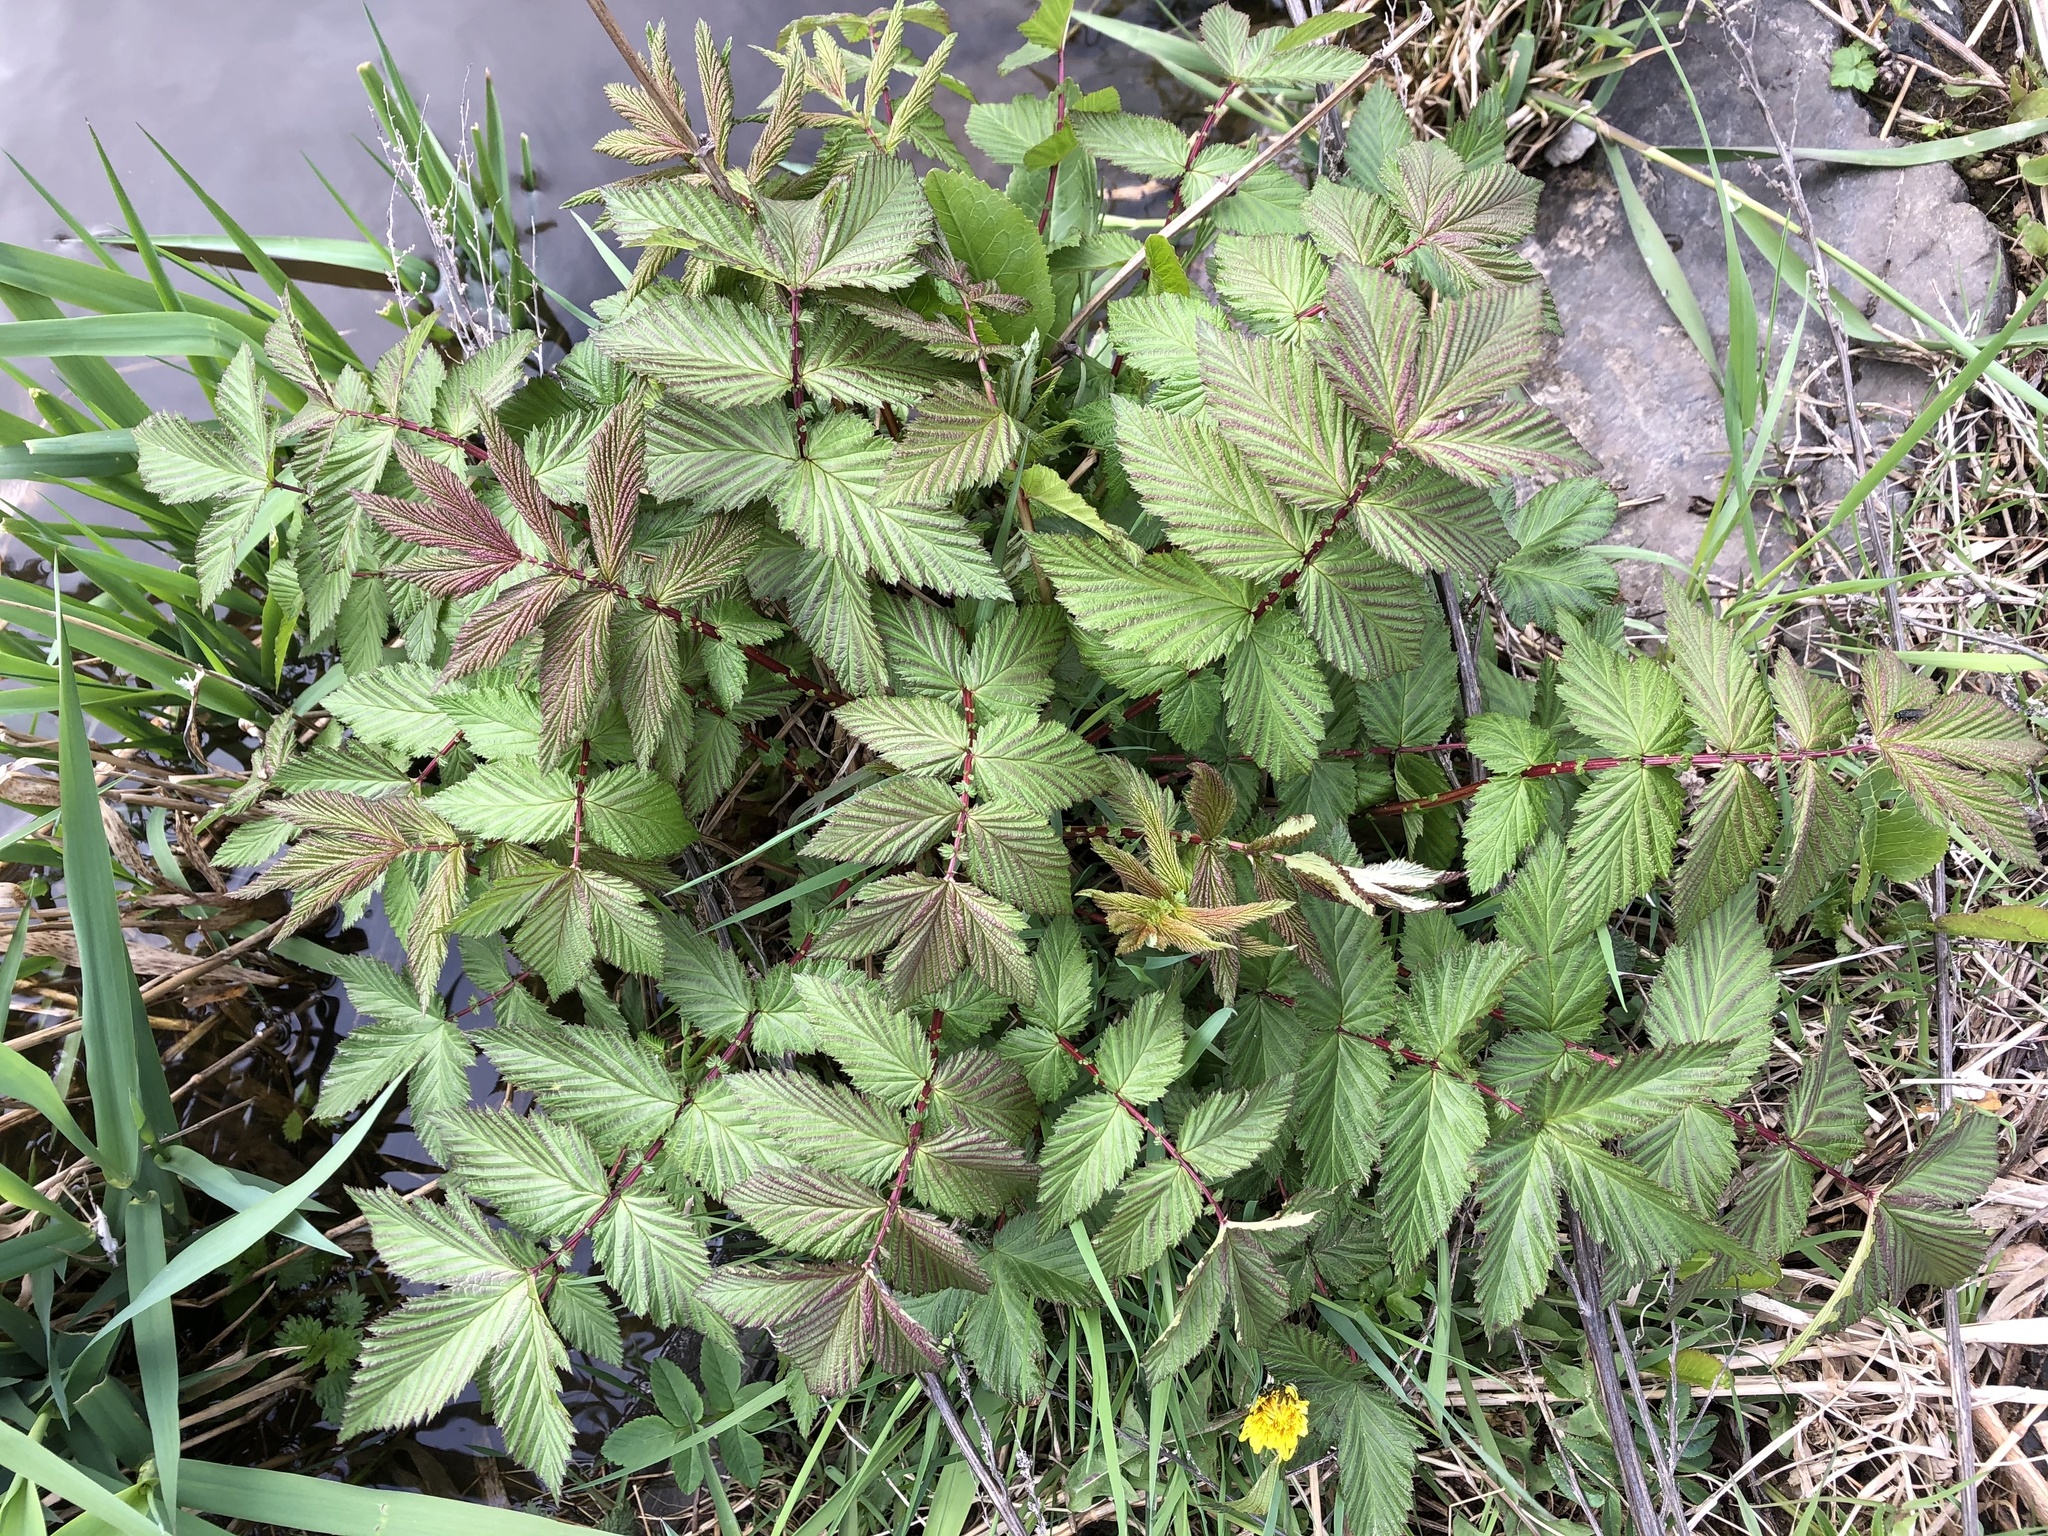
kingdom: Plantae
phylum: Tracheophyta
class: Magnoliopsida
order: Rosales
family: Rosaceae
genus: Filipendula
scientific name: Filipendula ulmaria
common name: Meadowsweet
